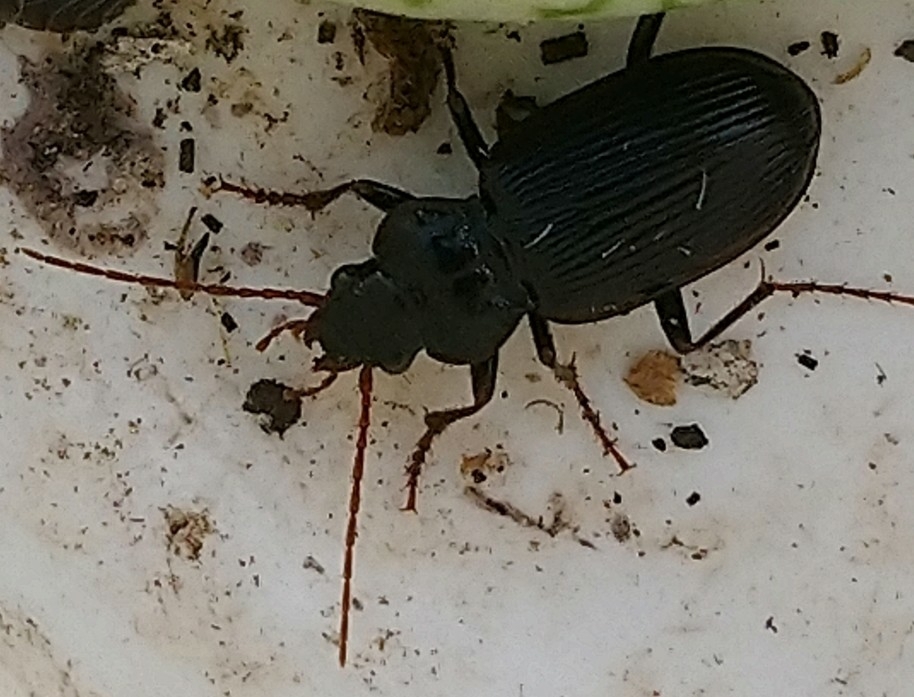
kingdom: Animalia
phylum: Arthropoda
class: Insecta
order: Coleoptera
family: Carabidae
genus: Nebria
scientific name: Nebria brevicollis
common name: Short-necked gazelle beetle
